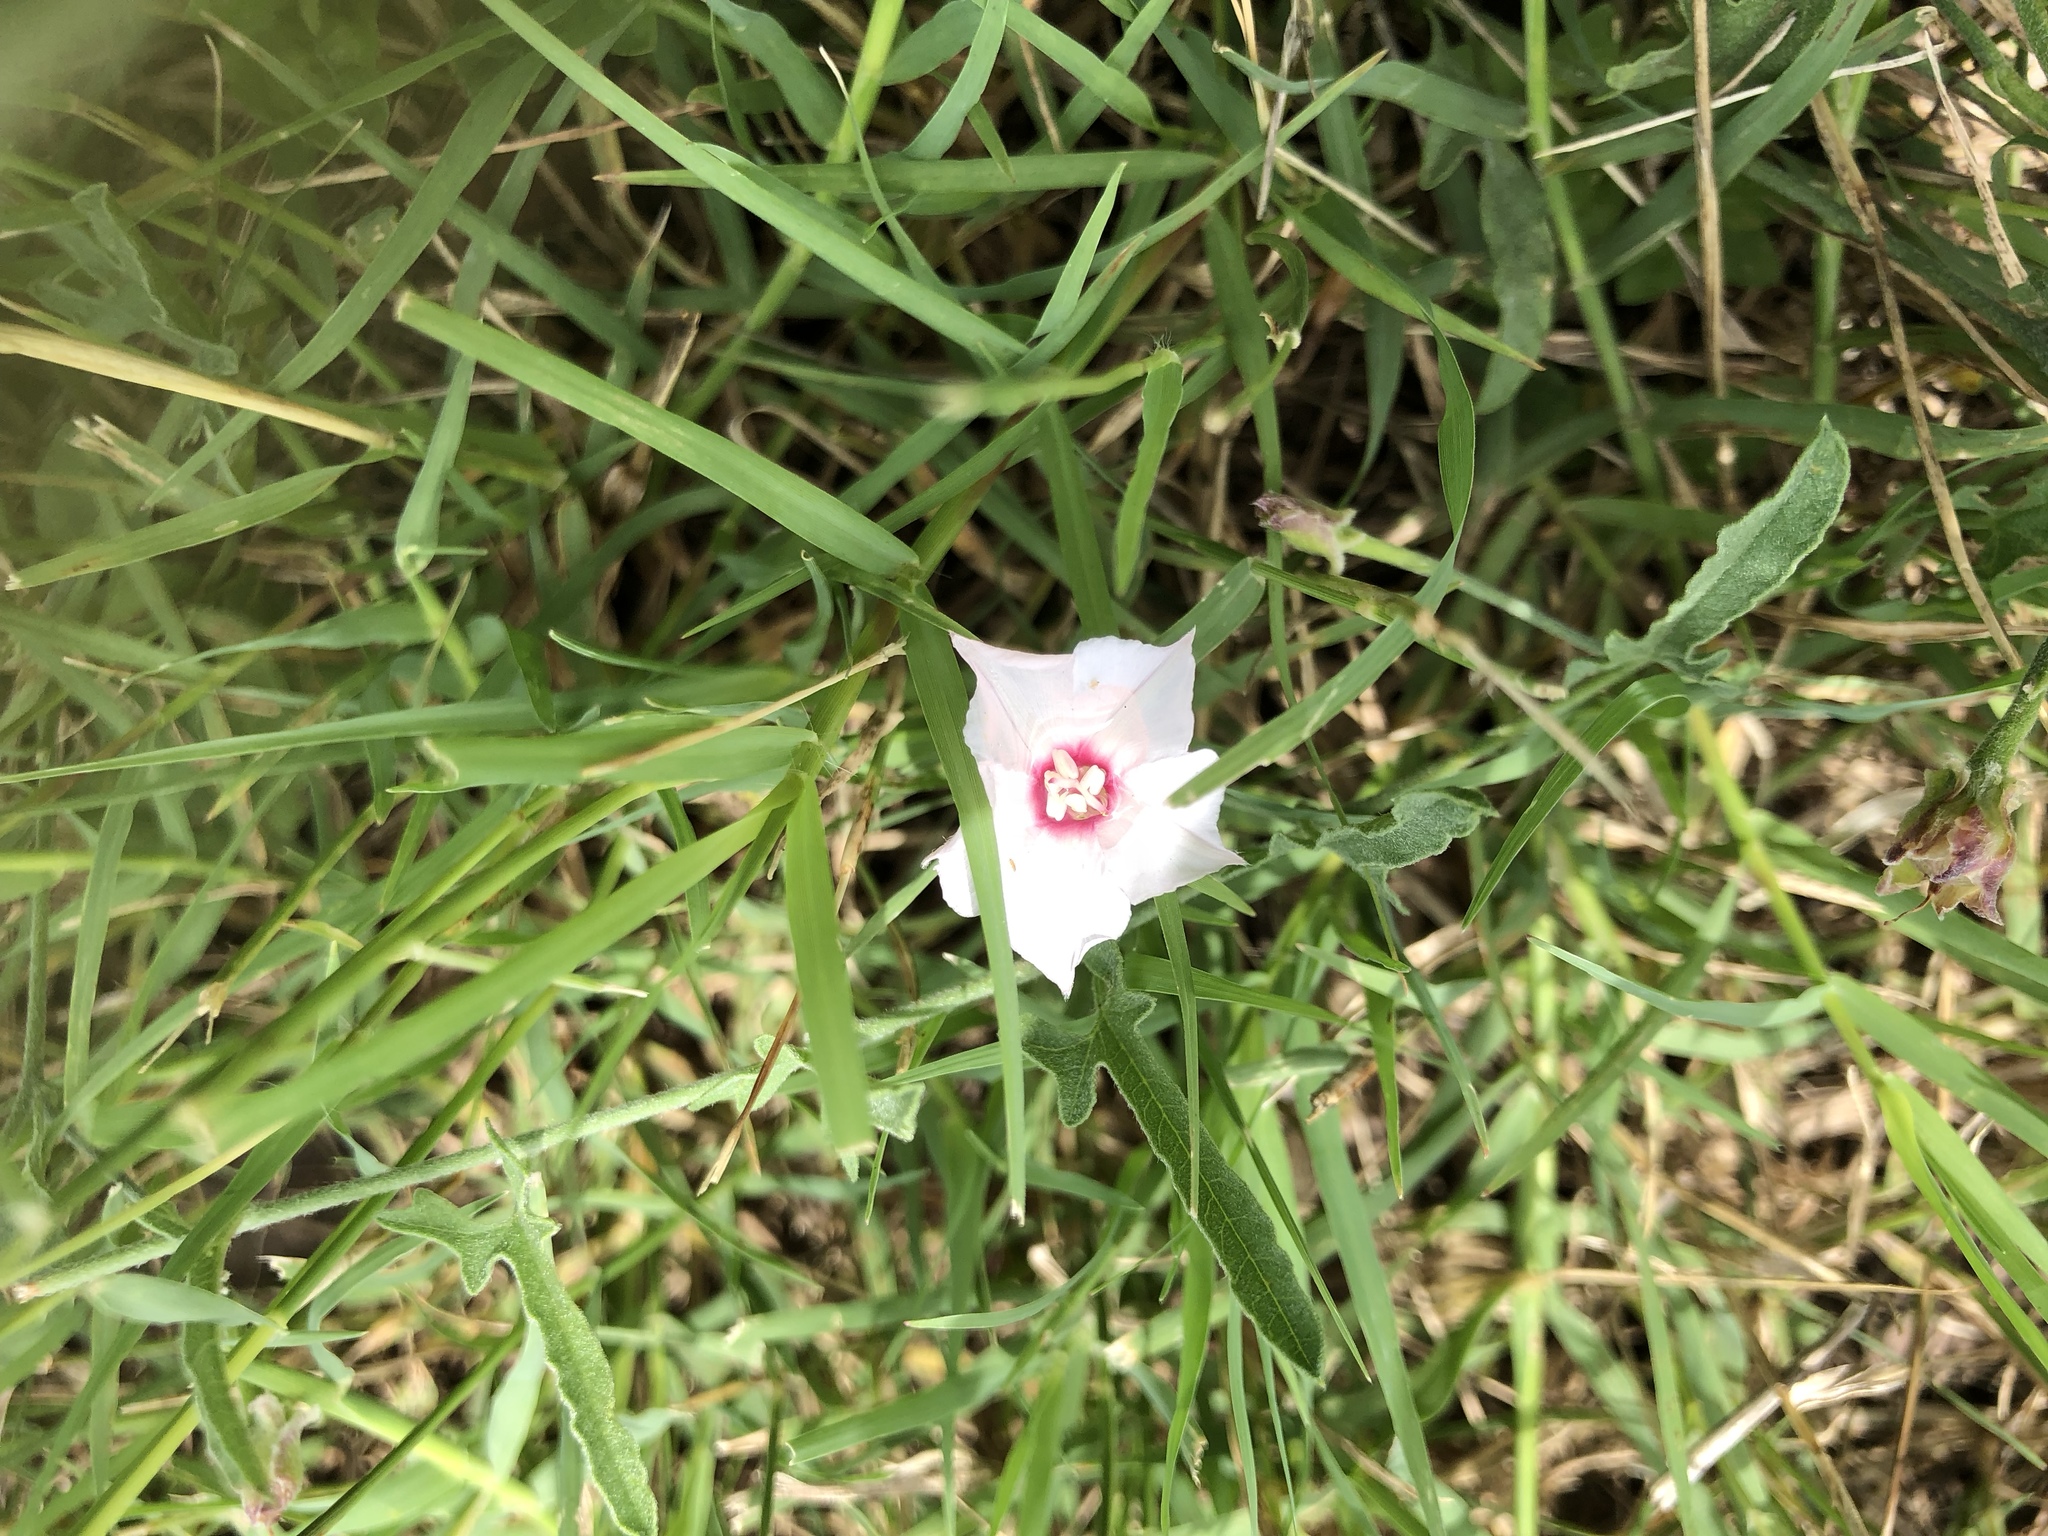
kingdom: Plantae
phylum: Tracheophyta
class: Magnoliopsida
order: Solanales
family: Convolvulaceae
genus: Convolvulus
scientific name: Convolvulus equitans
